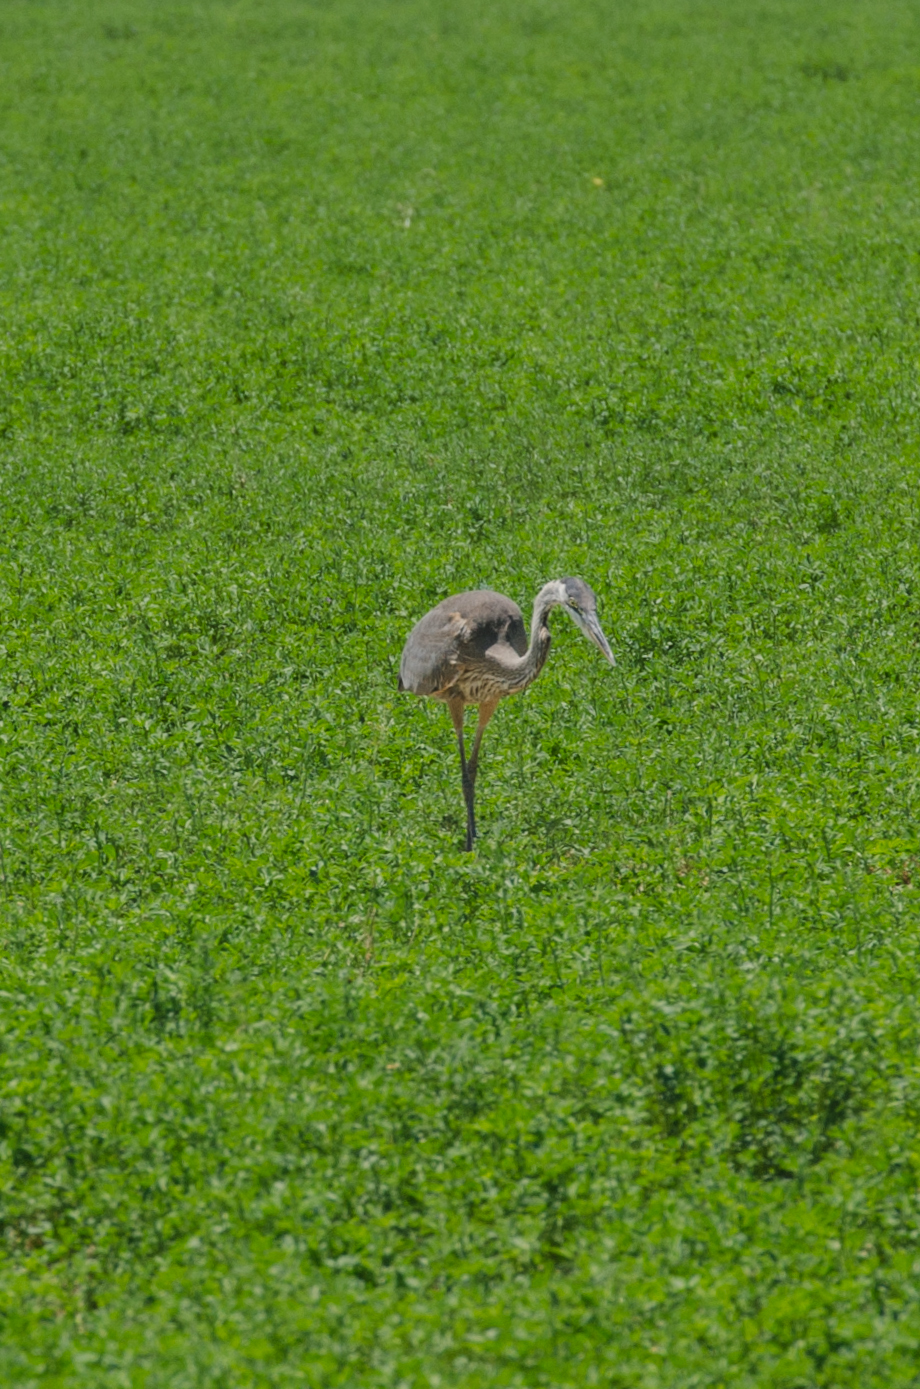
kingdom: Animalia
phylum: Chordata
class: Aves
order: Pelecaniformes
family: Ardeidae
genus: Ardea
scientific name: Ardea herodias
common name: Great blue heron
